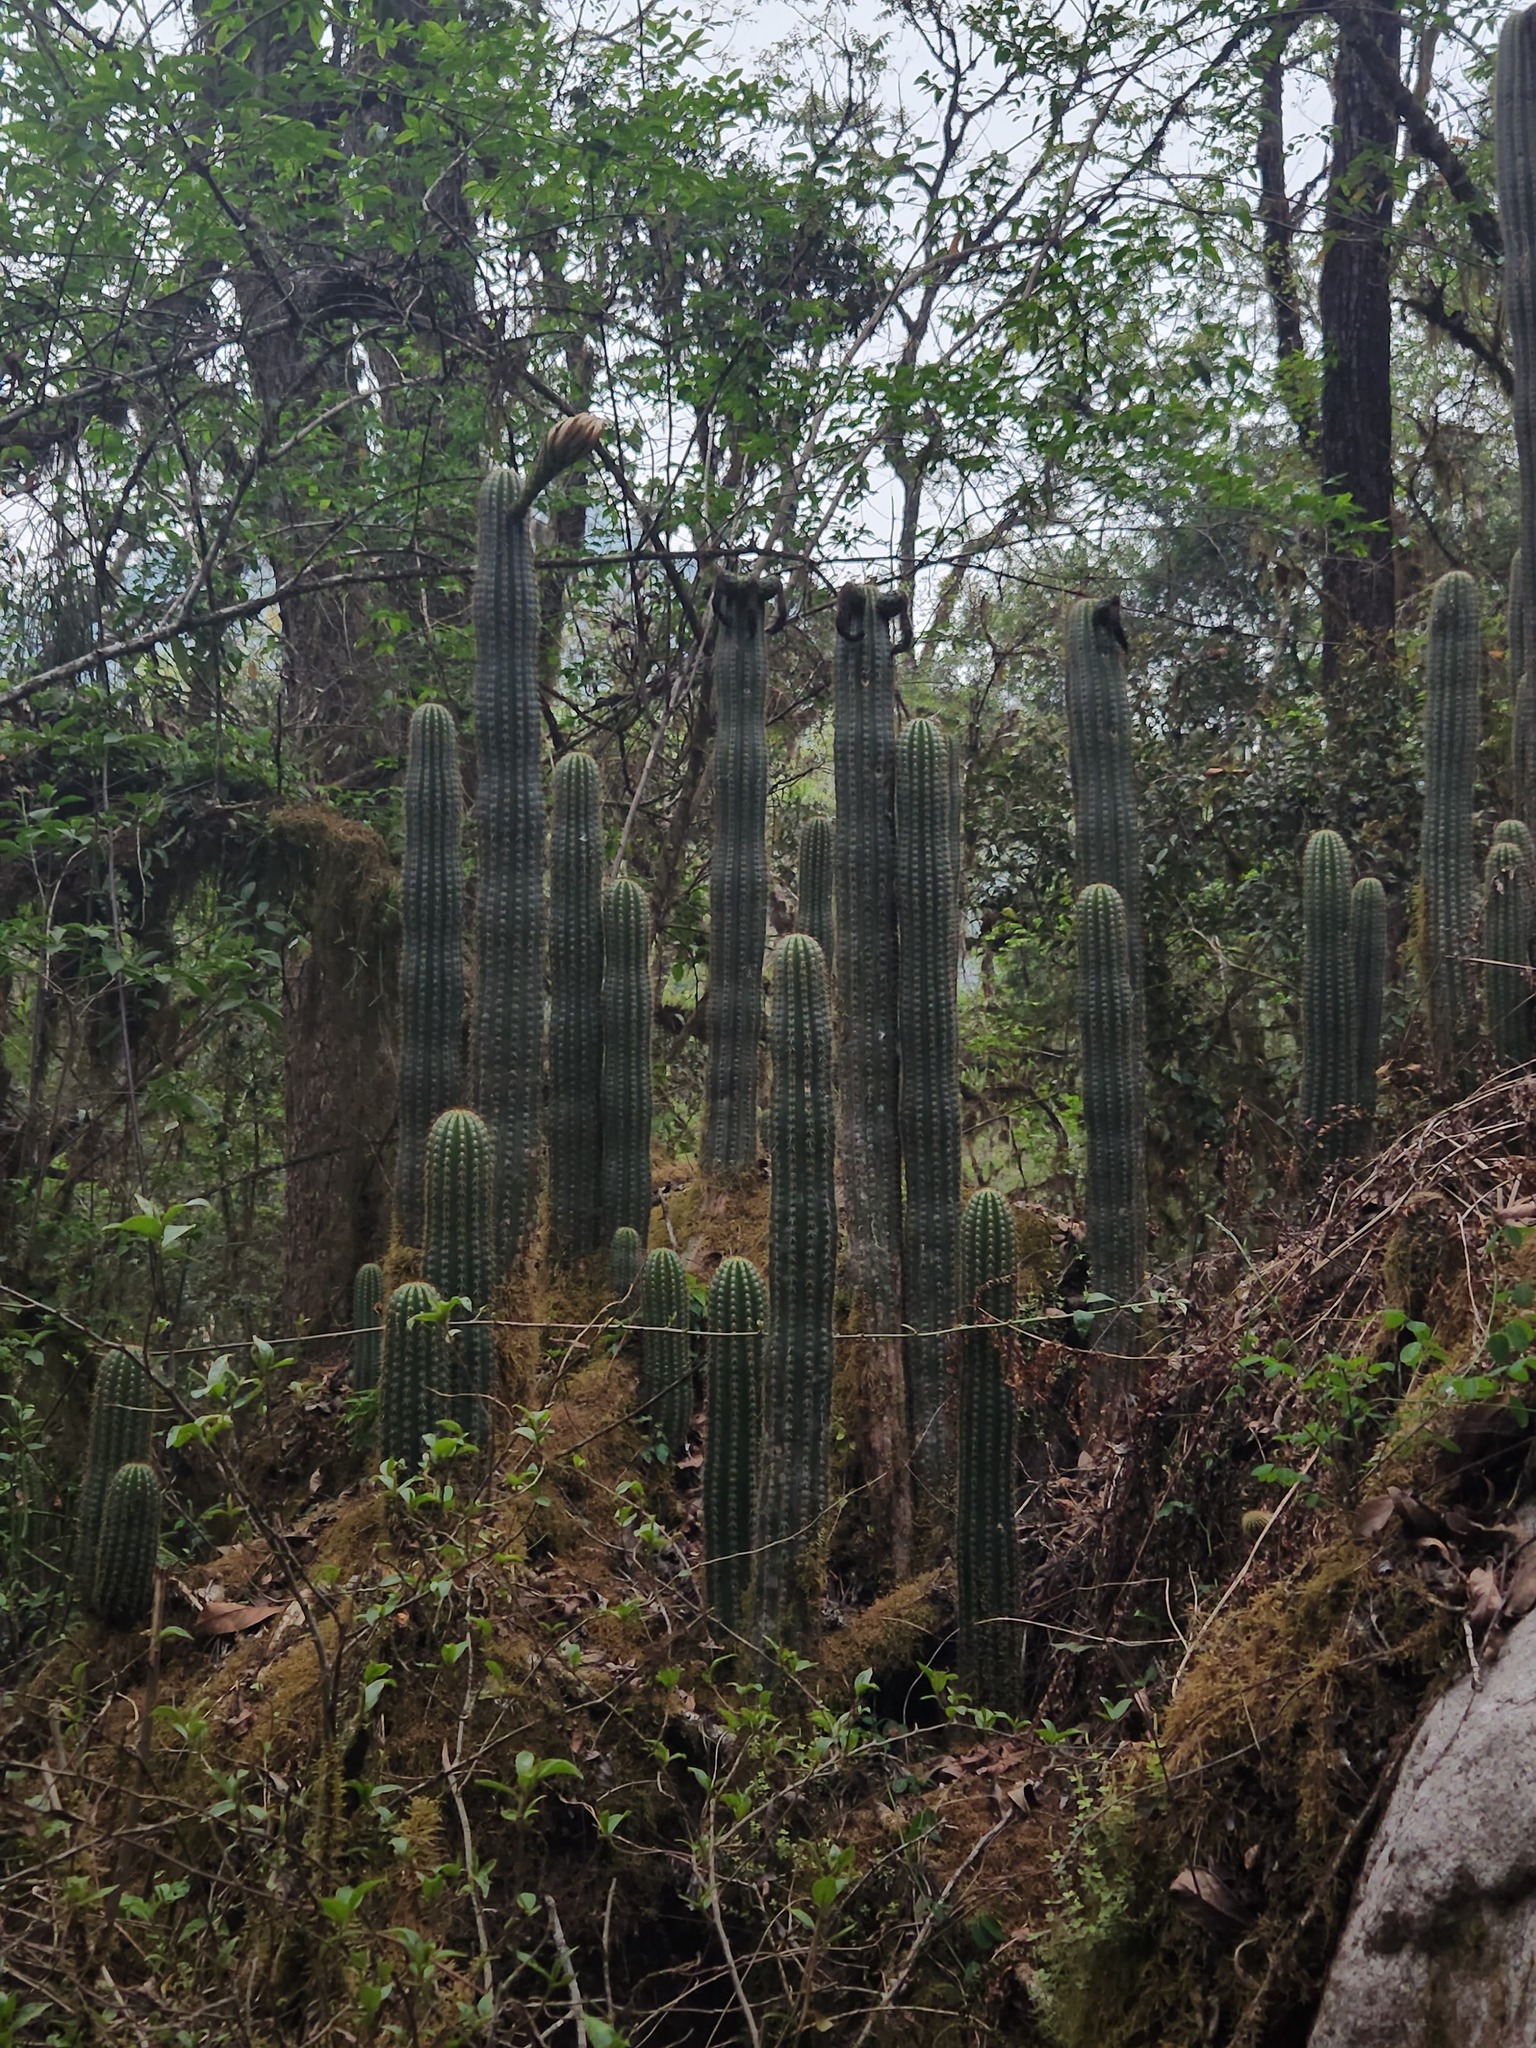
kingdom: Plantae
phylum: Tracheophyta
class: Magnoliopsida
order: Caryophyllales
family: Cactaceae
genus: Soehrensia
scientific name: Soehrensia schickendantzii
